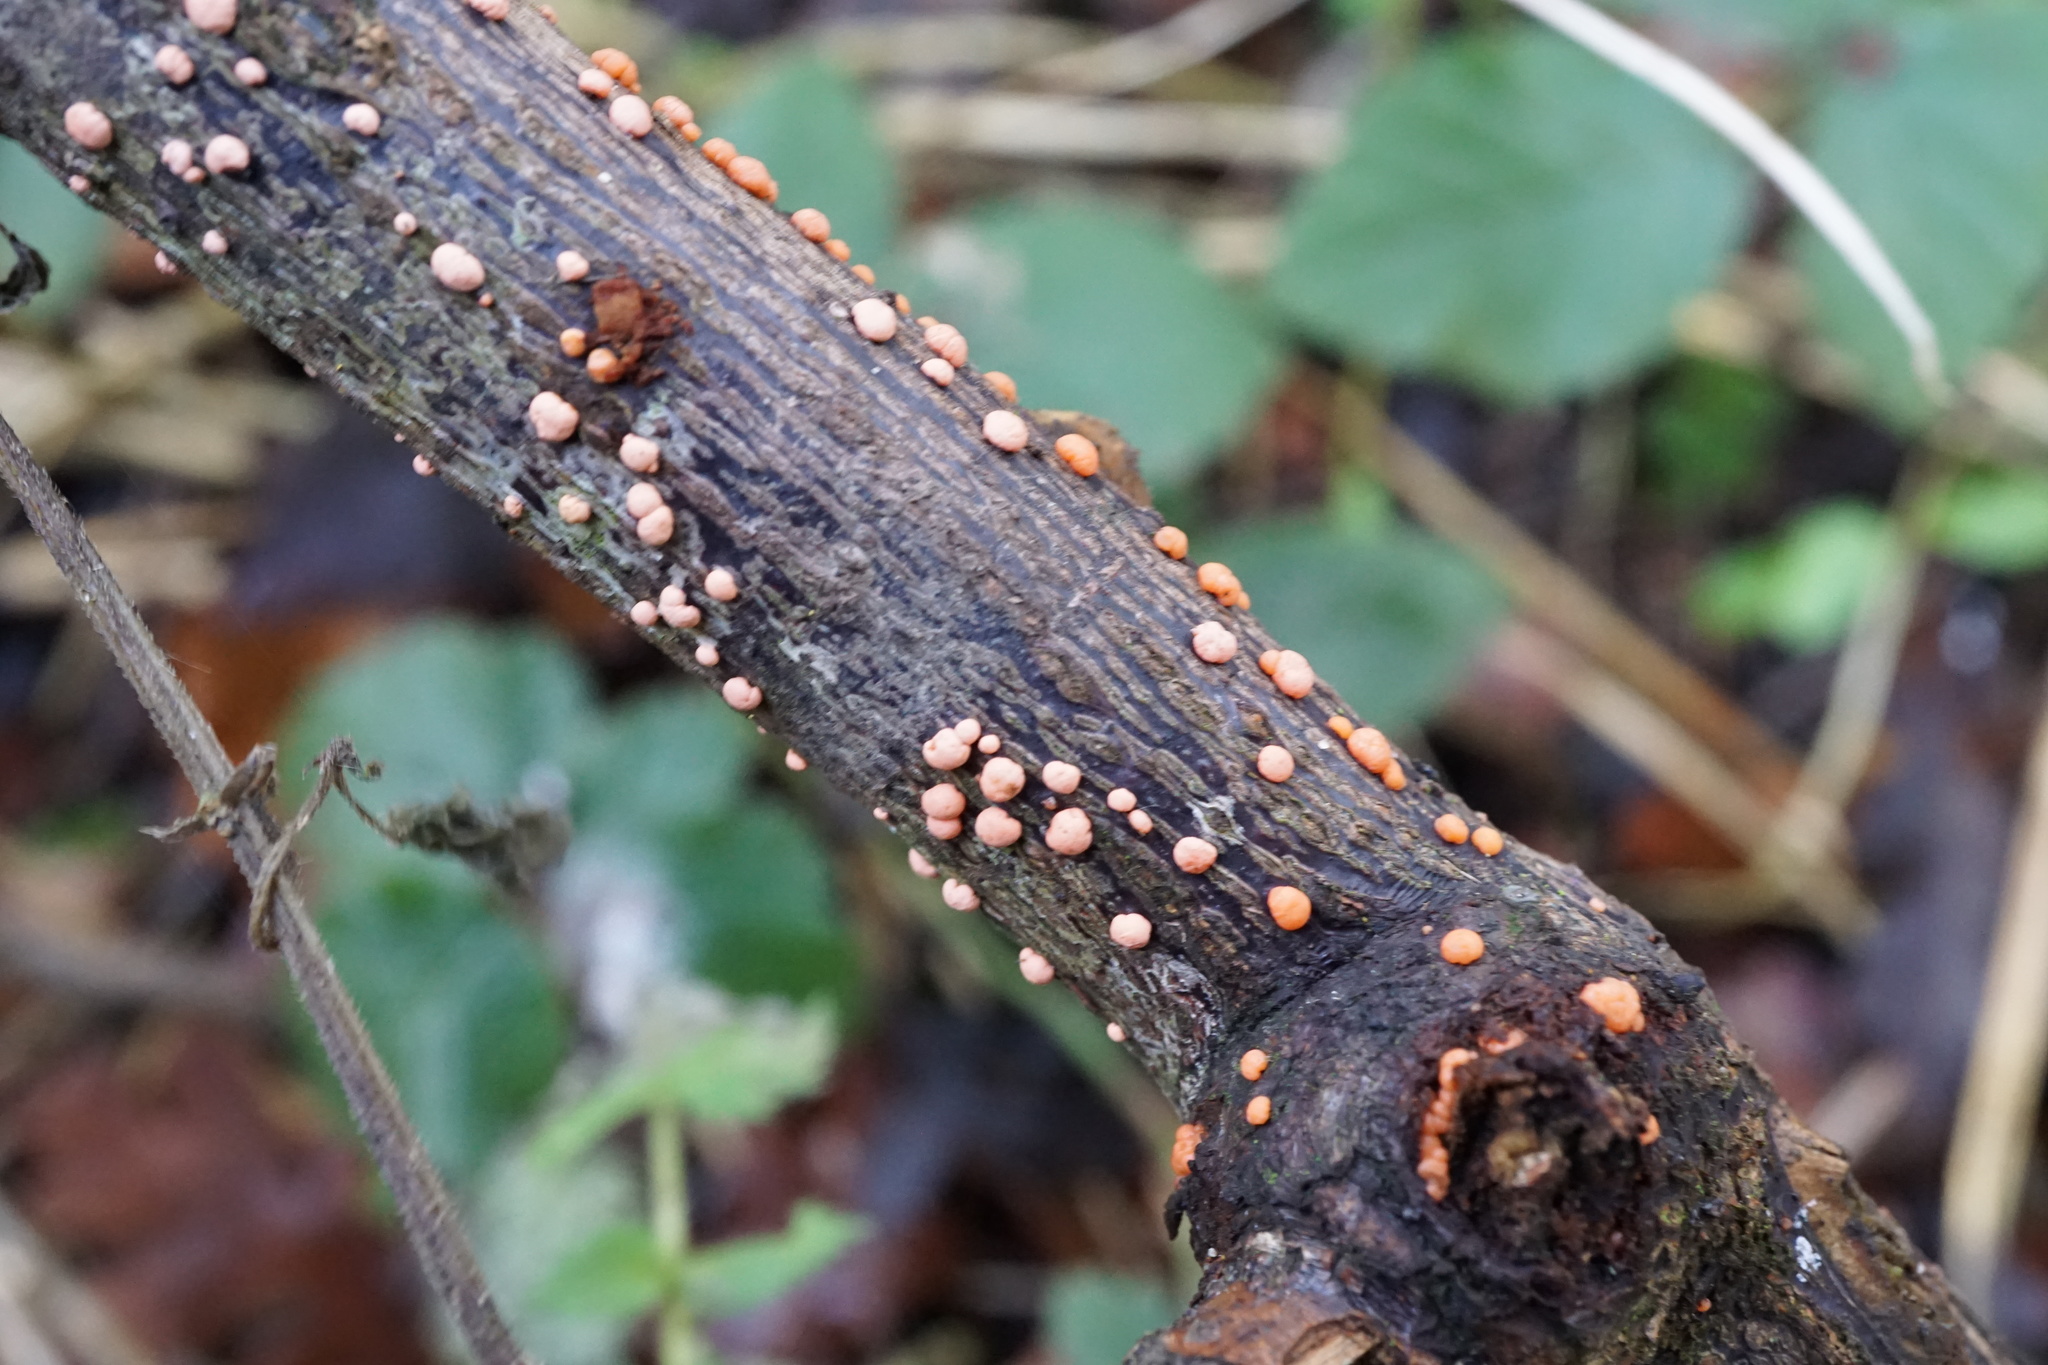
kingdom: Fungi
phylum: Ascomycota
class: Sordariomycetes
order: Hypocreales
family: Nectriaceae
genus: Nectria
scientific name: Nectria cinnabarina
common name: Coral spot
